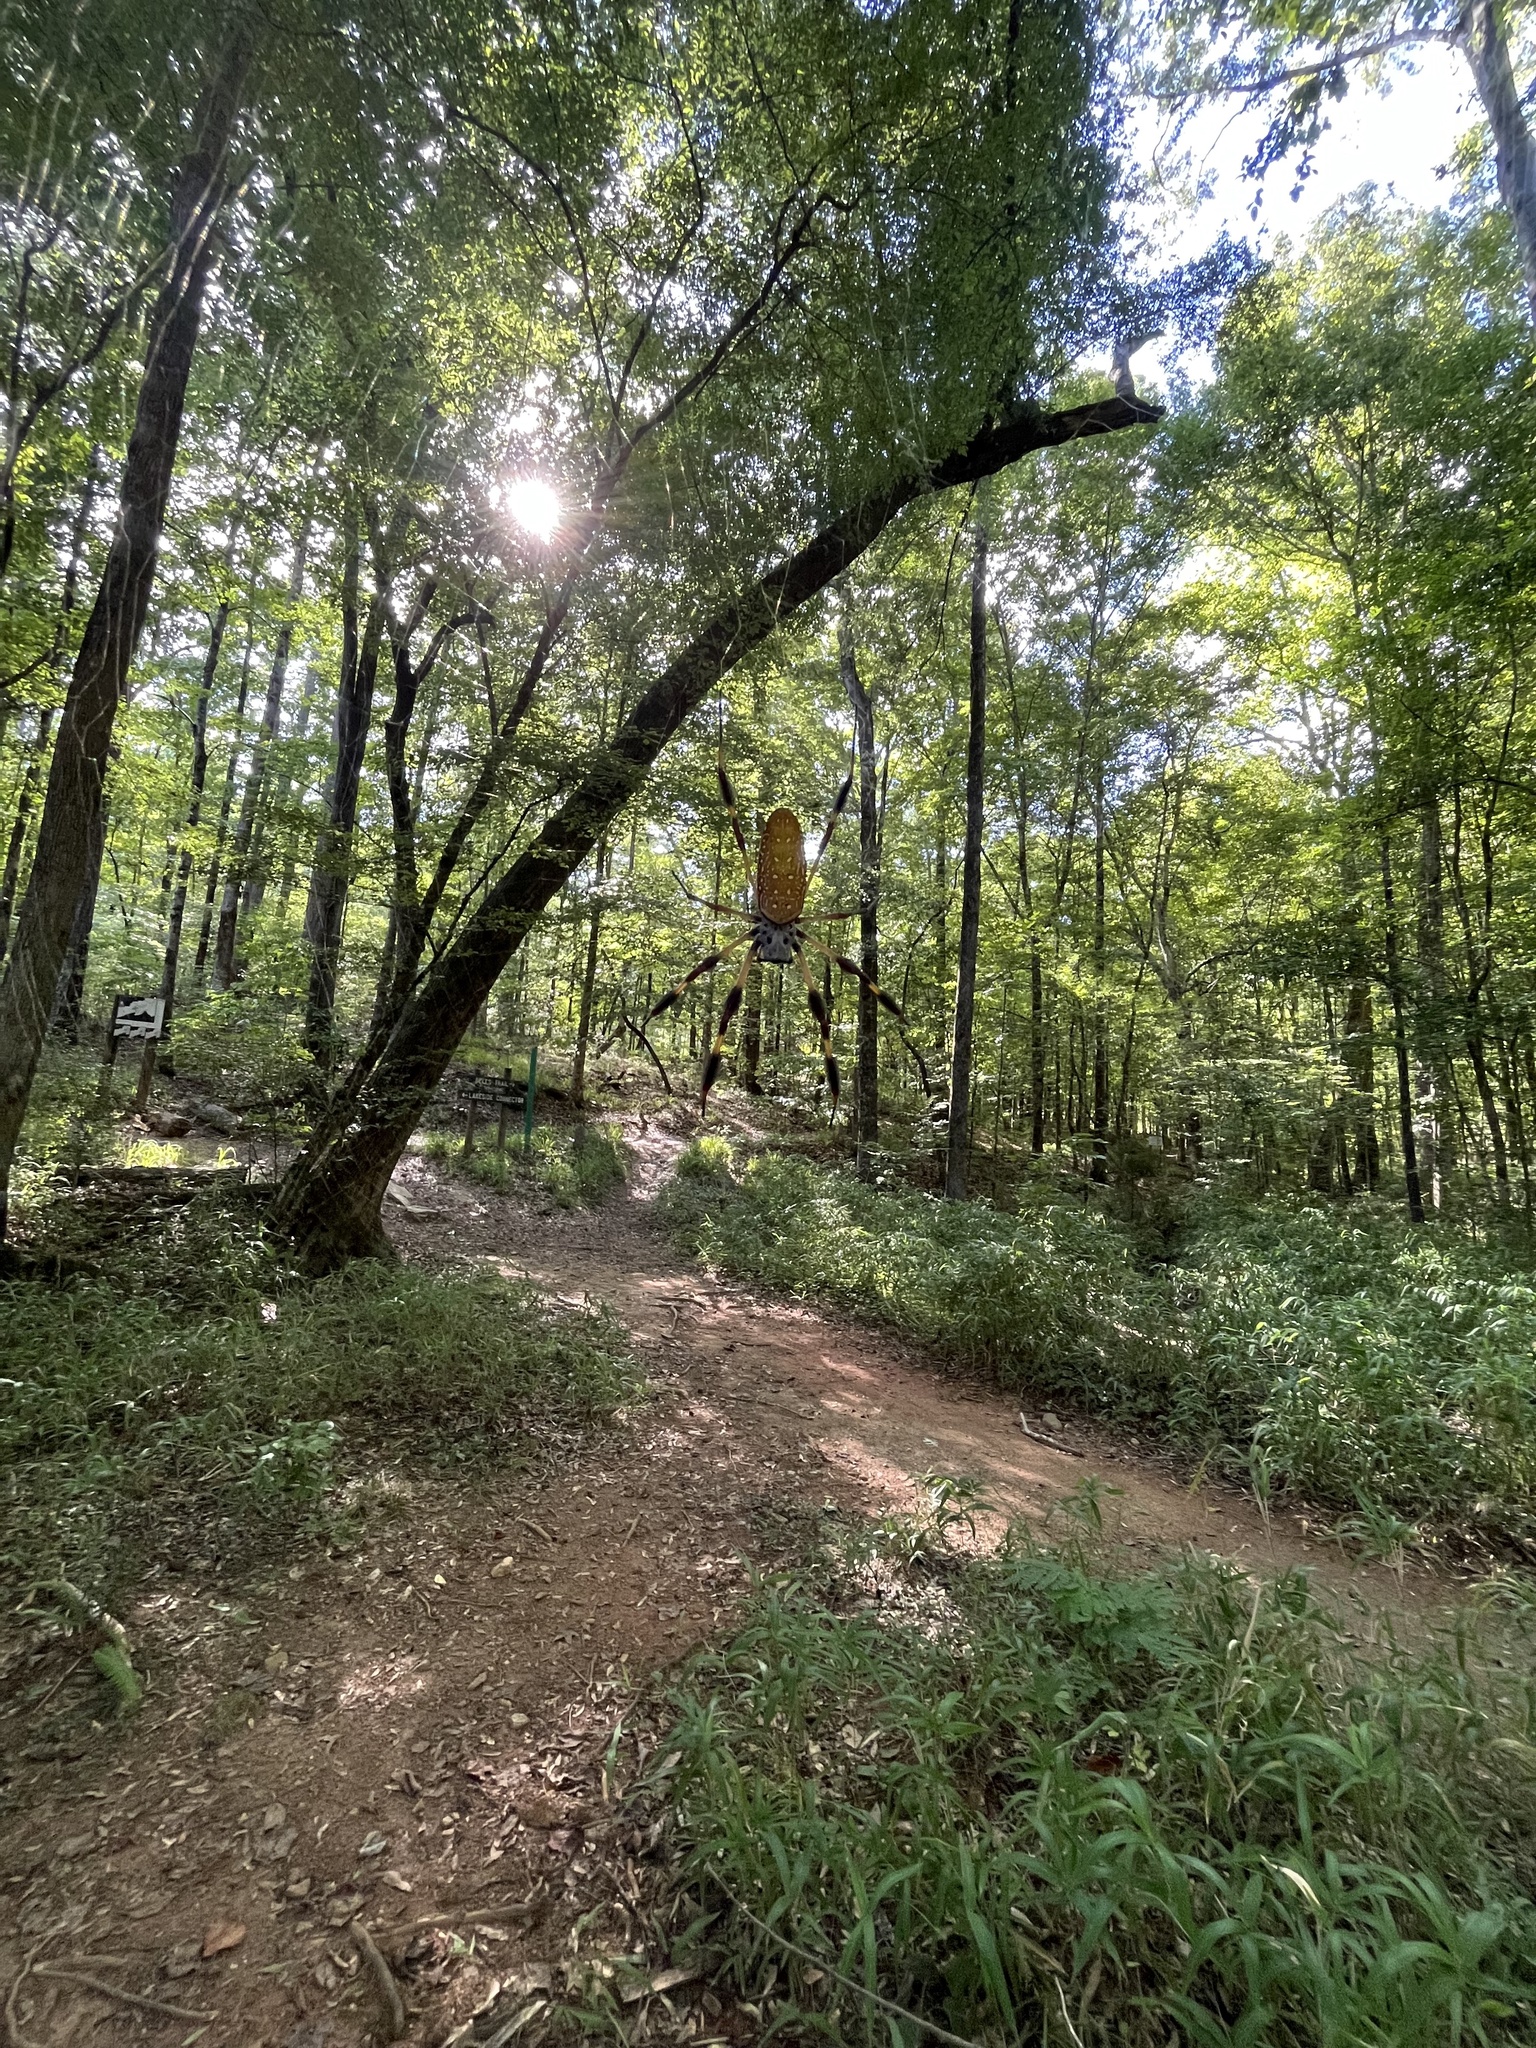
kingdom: Animalia
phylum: Arthropoda
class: Arachnida
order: Araneae
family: Araneidae
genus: Trichonephila
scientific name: Trichonephila clavipes
